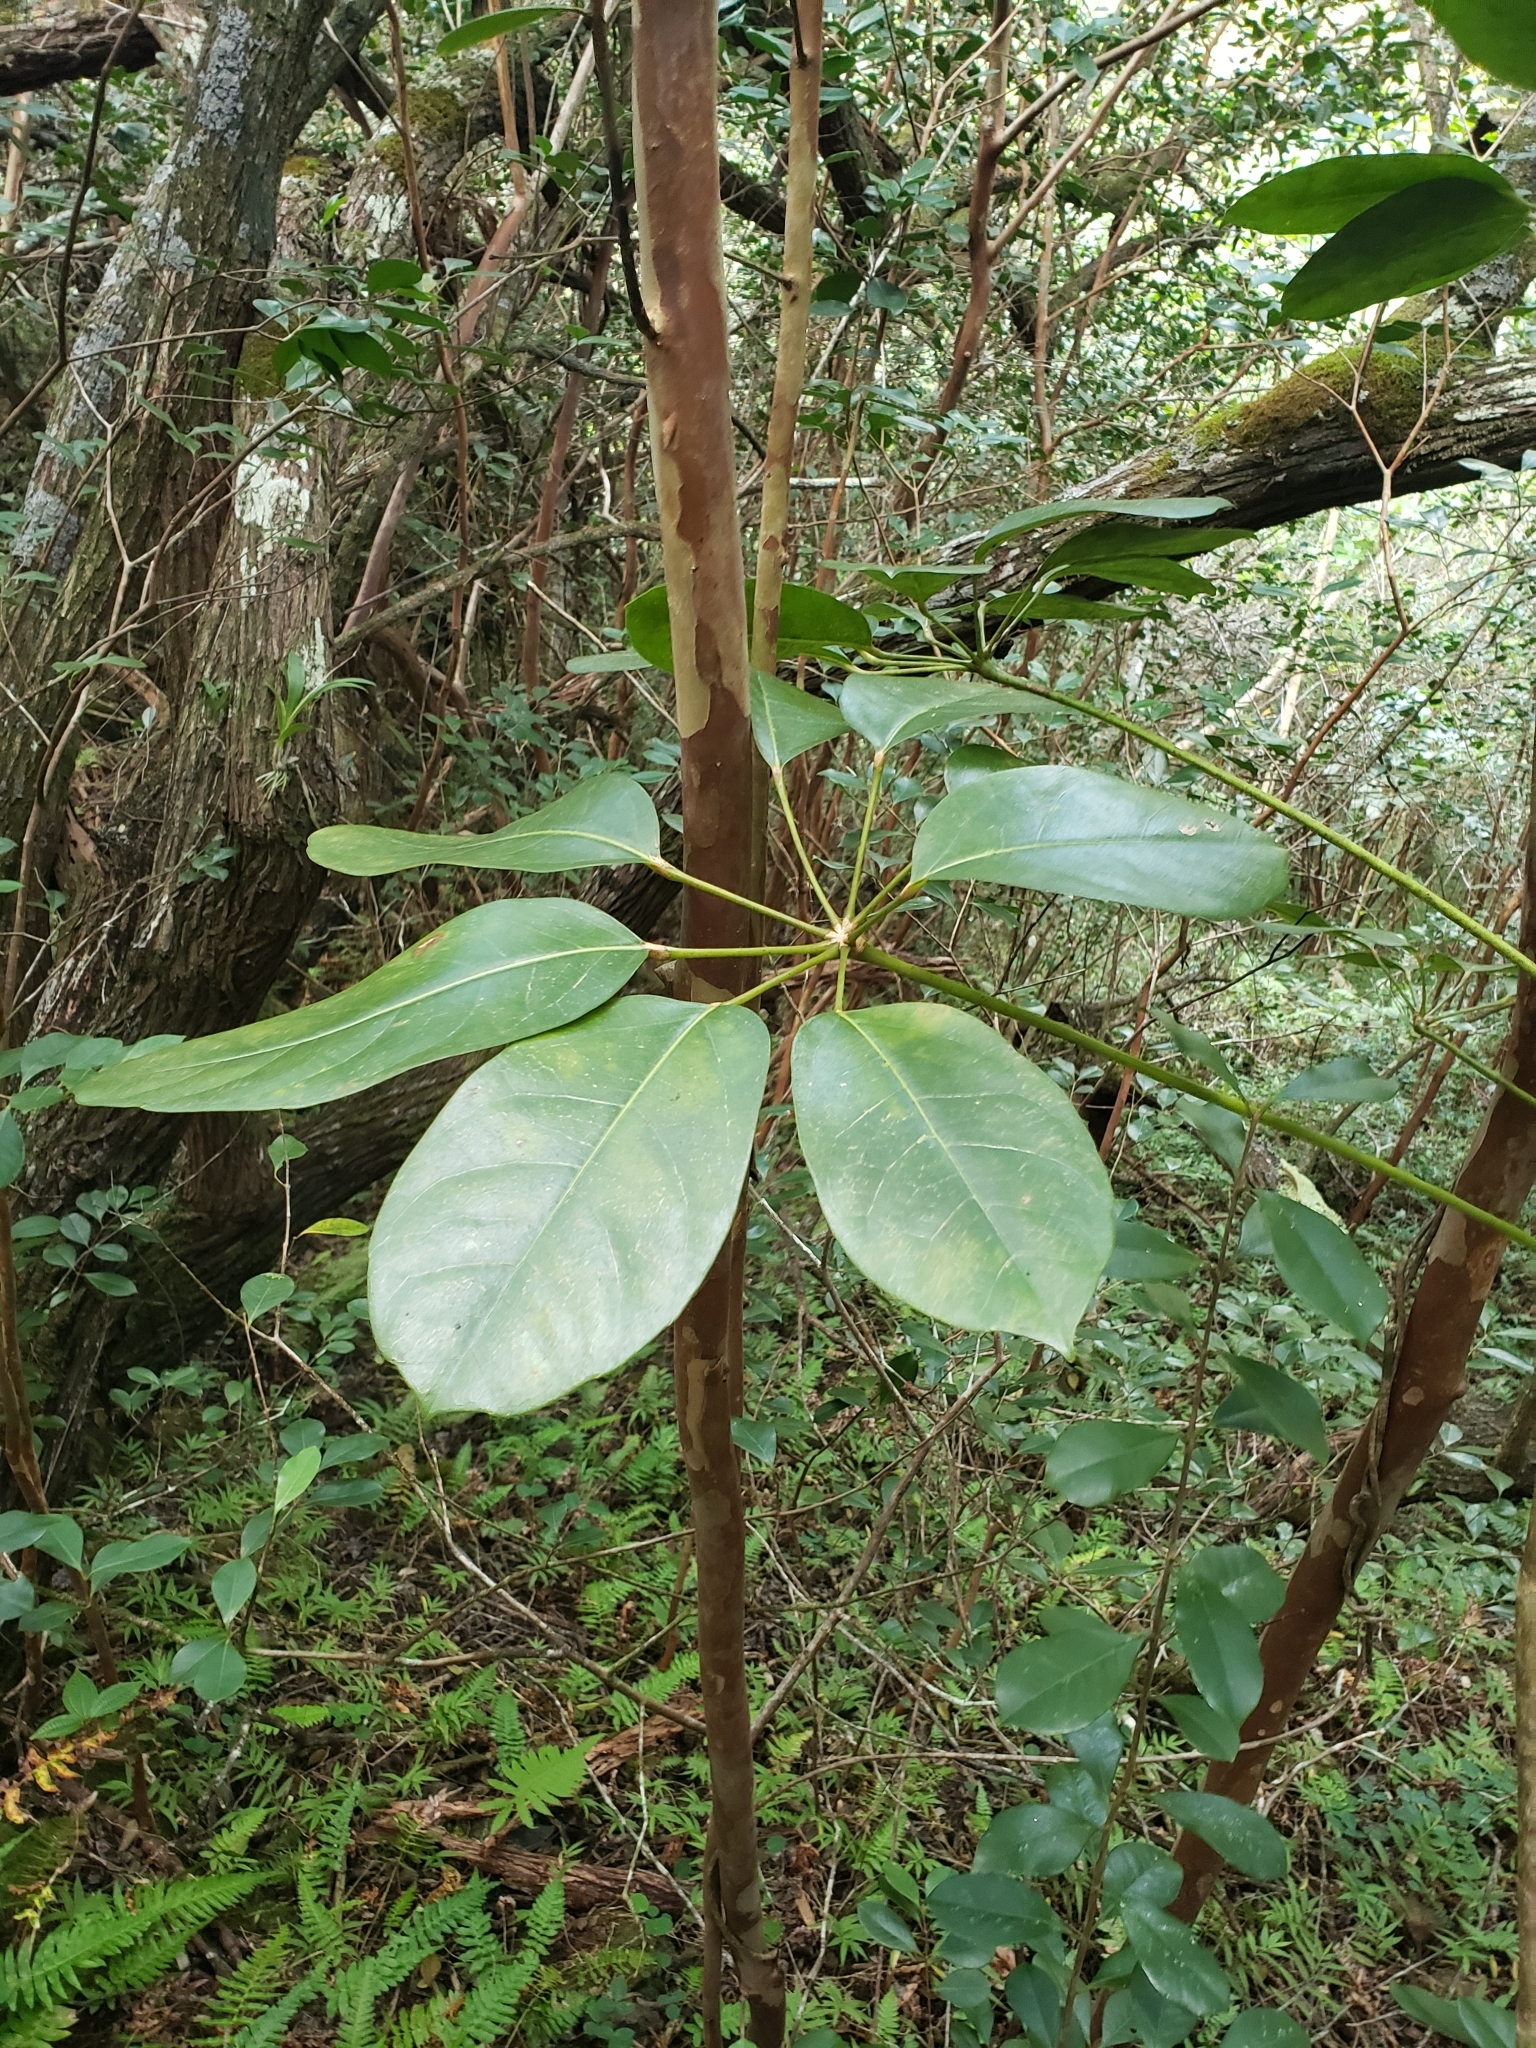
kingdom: Plantae
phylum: Tracheophyta
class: Magnoliopsida
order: Apiales
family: Araliaceae
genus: Heptapleurum
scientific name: Heptapleurum actinophyllum
